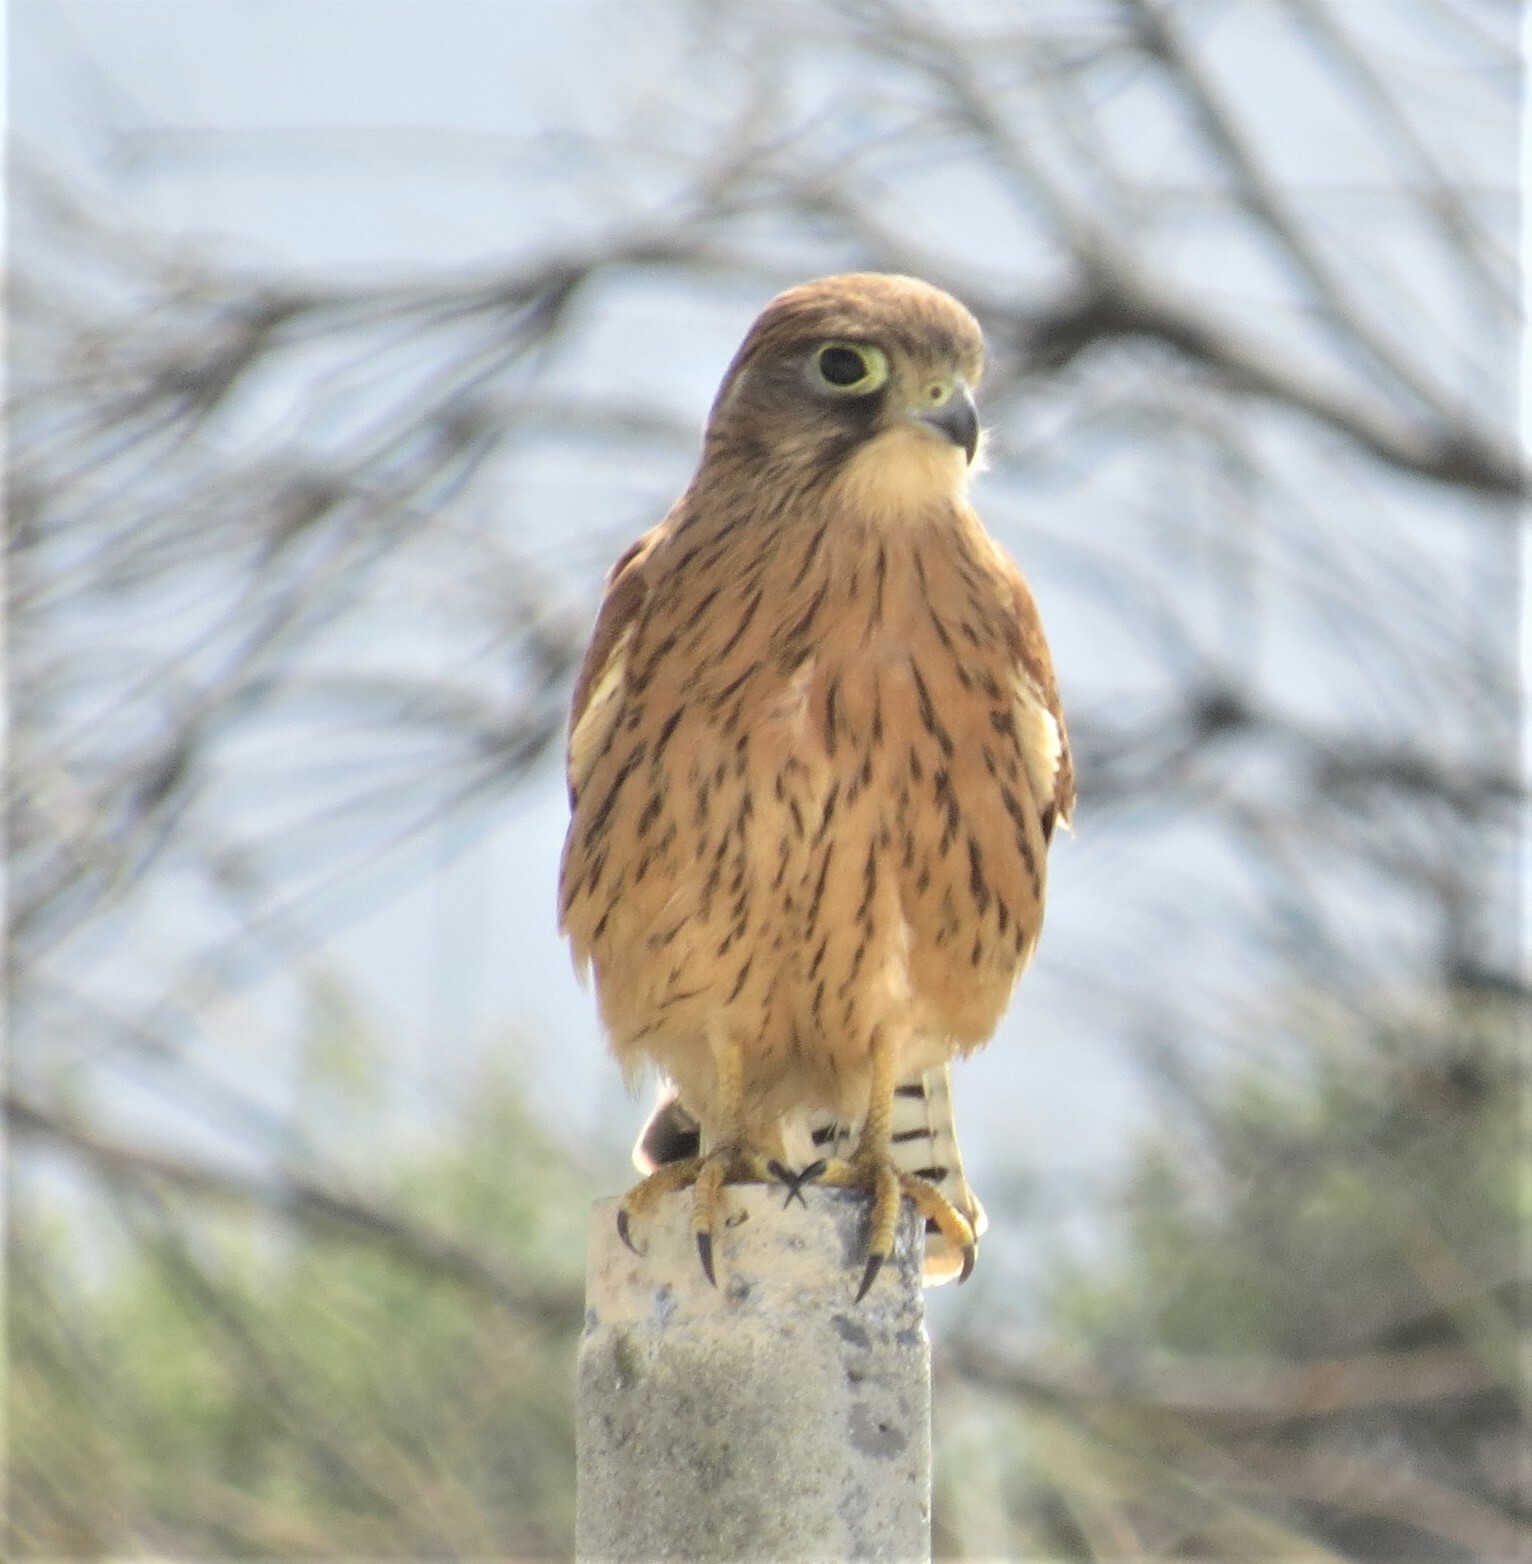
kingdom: Animalia
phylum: Chordata
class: Aves
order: Falconiformes
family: Falconidae
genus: Falco
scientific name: Falco rupicolus
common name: Rock kestrel
